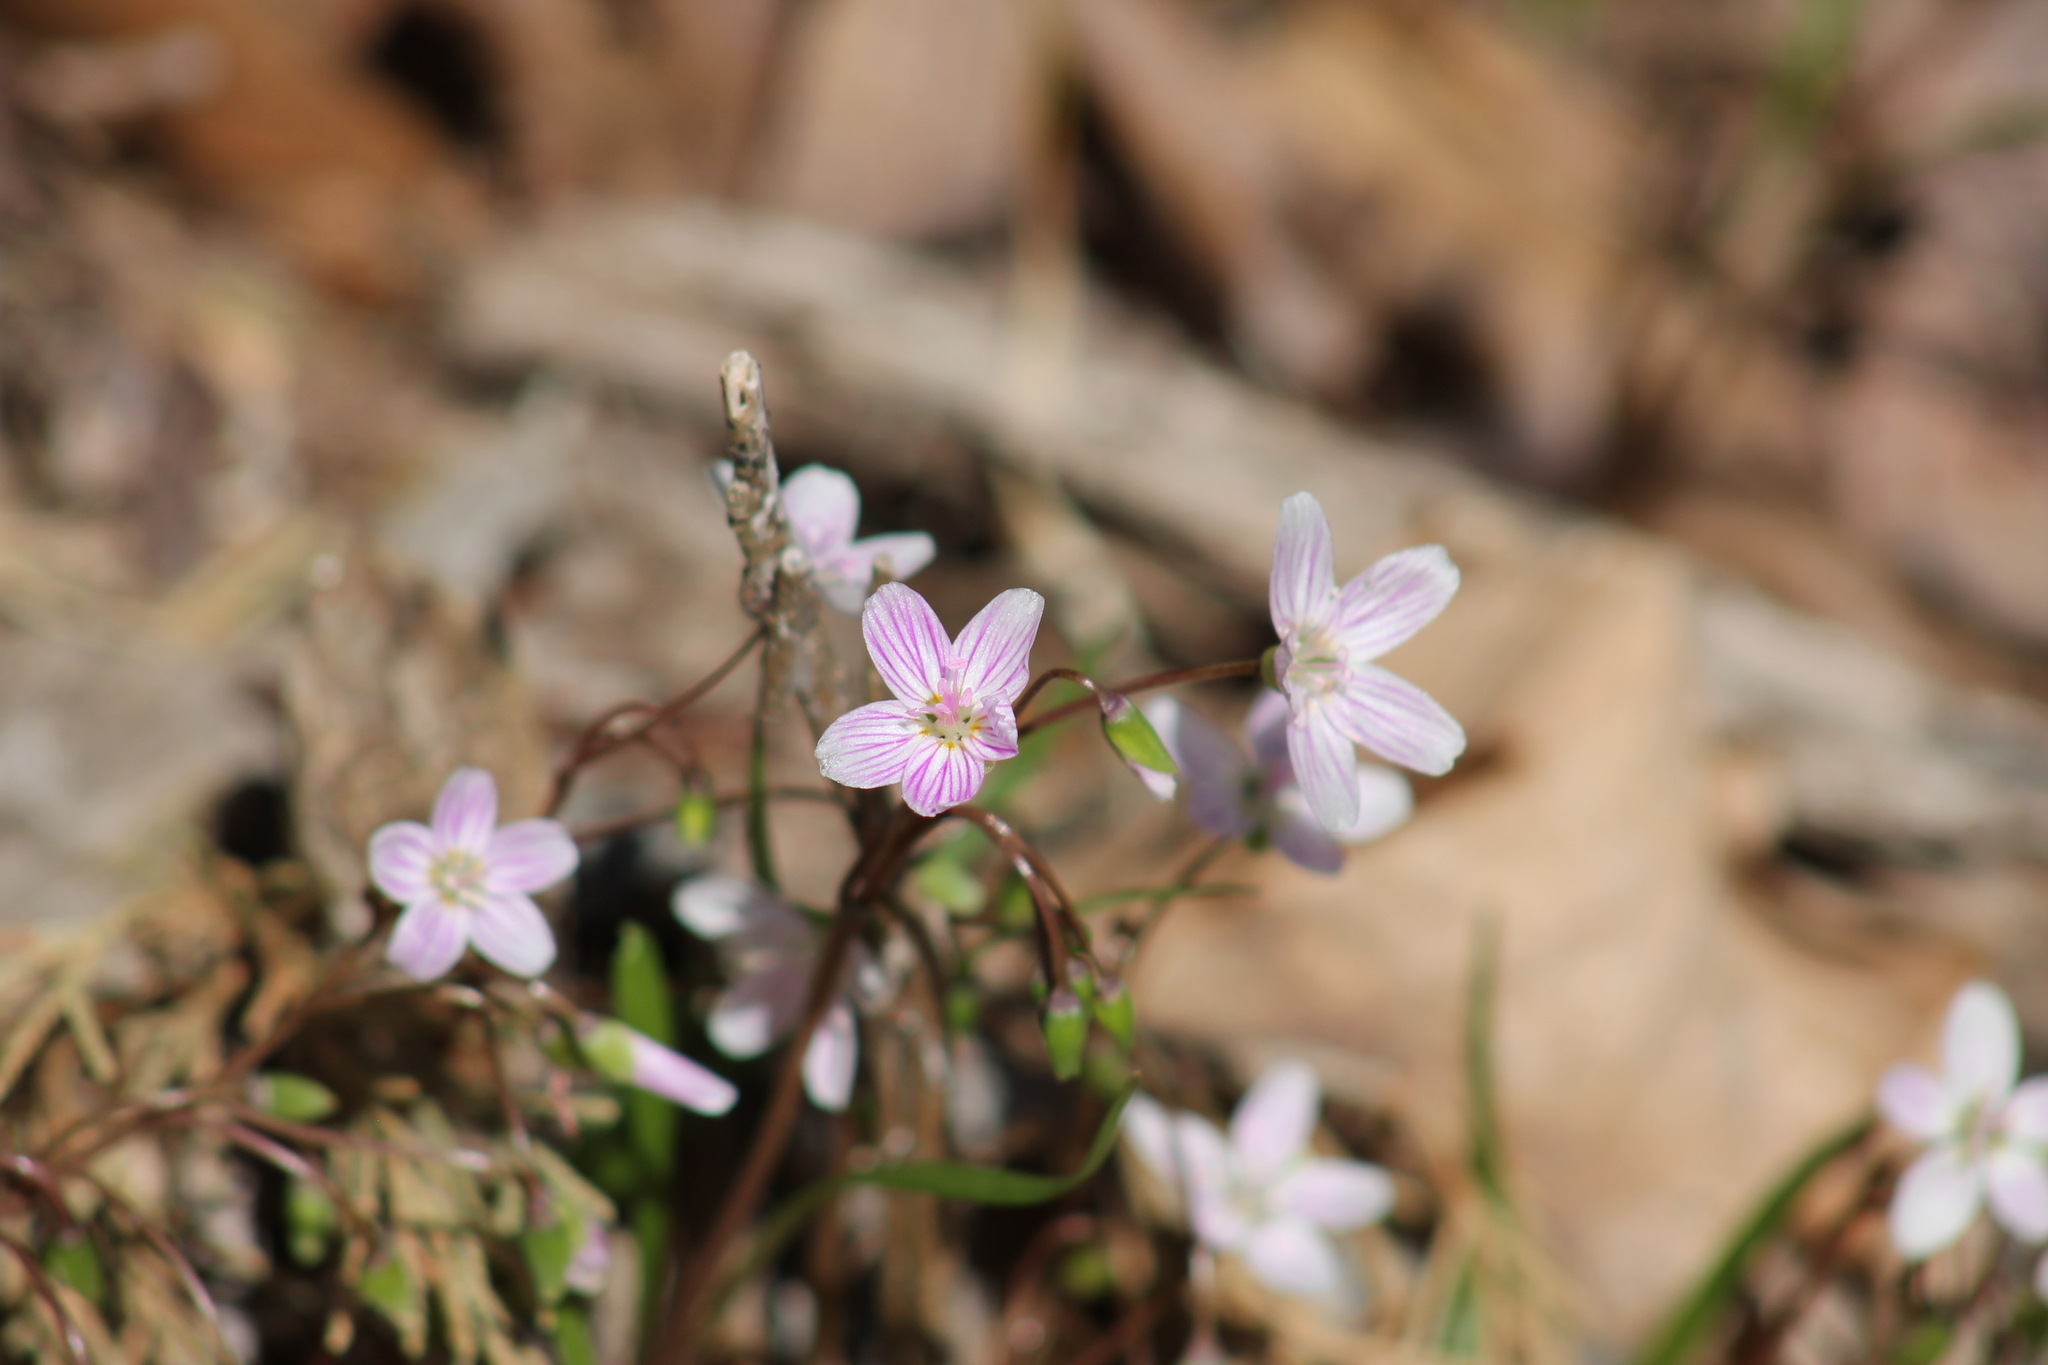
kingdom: Plantae
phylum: Tracheophyta
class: Magnoliopsida
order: Caryophyllales
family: Montiaceae
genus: Claytonia
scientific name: Claytonia virginica
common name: Virginia springbeauty
